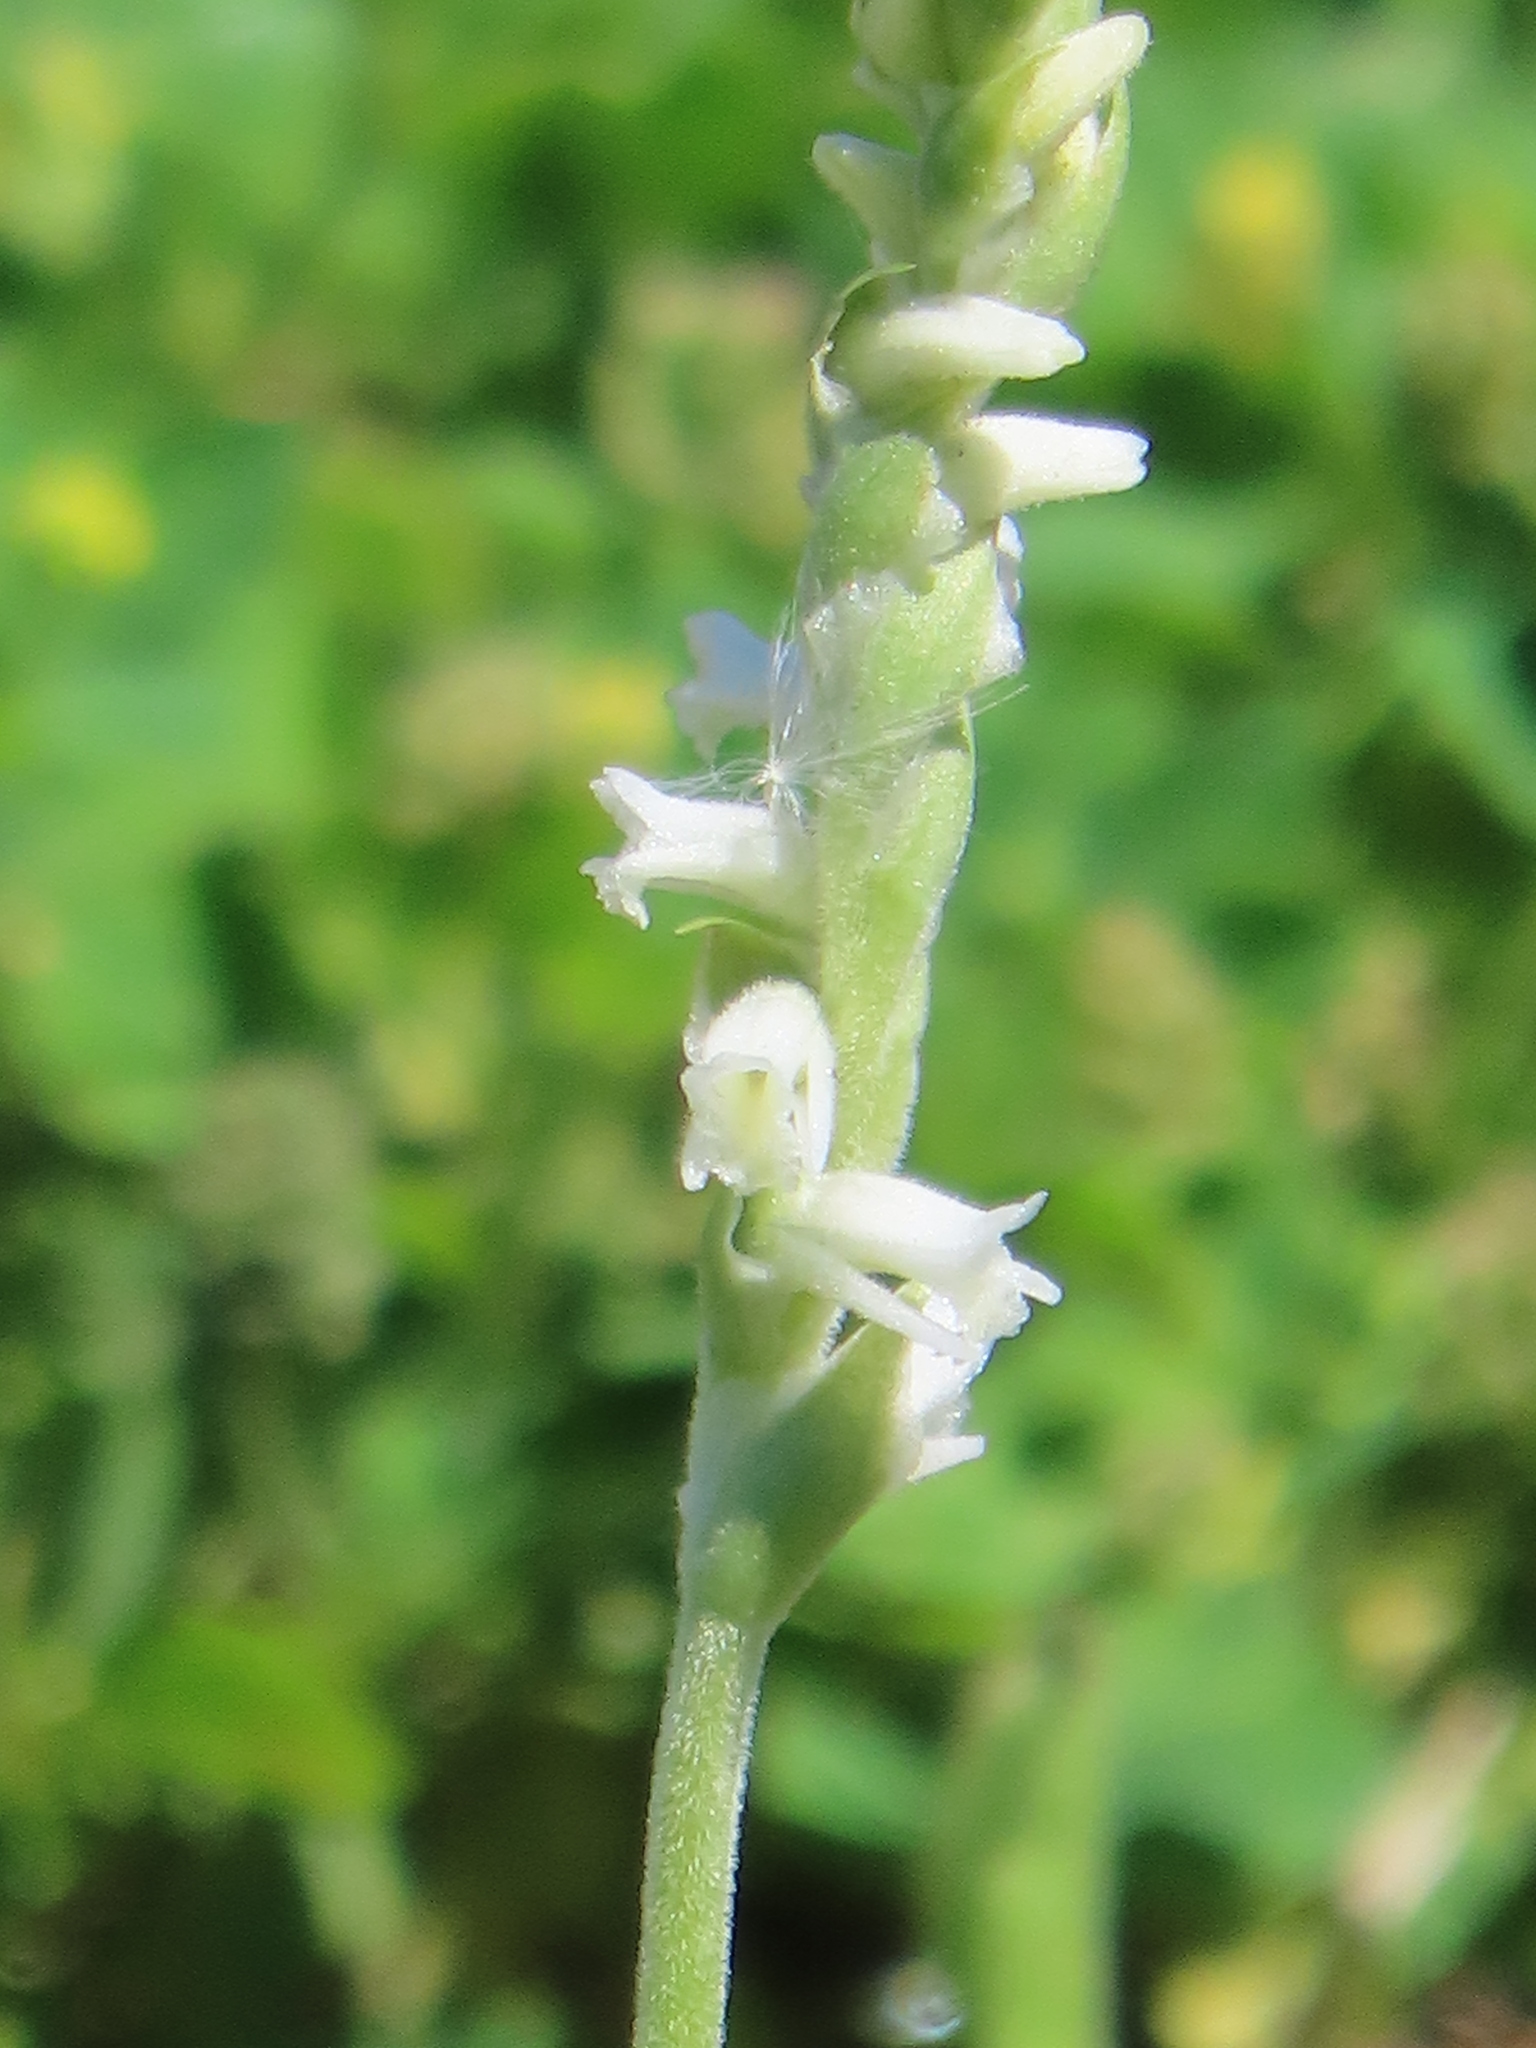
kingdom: Plantae
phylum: Tracheophyta
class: Liliopsida
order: Asparagales
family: Orchidaceae
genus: Spiranthes
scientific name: Spiranthes vernalis
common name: Spring ladies'-tresses
